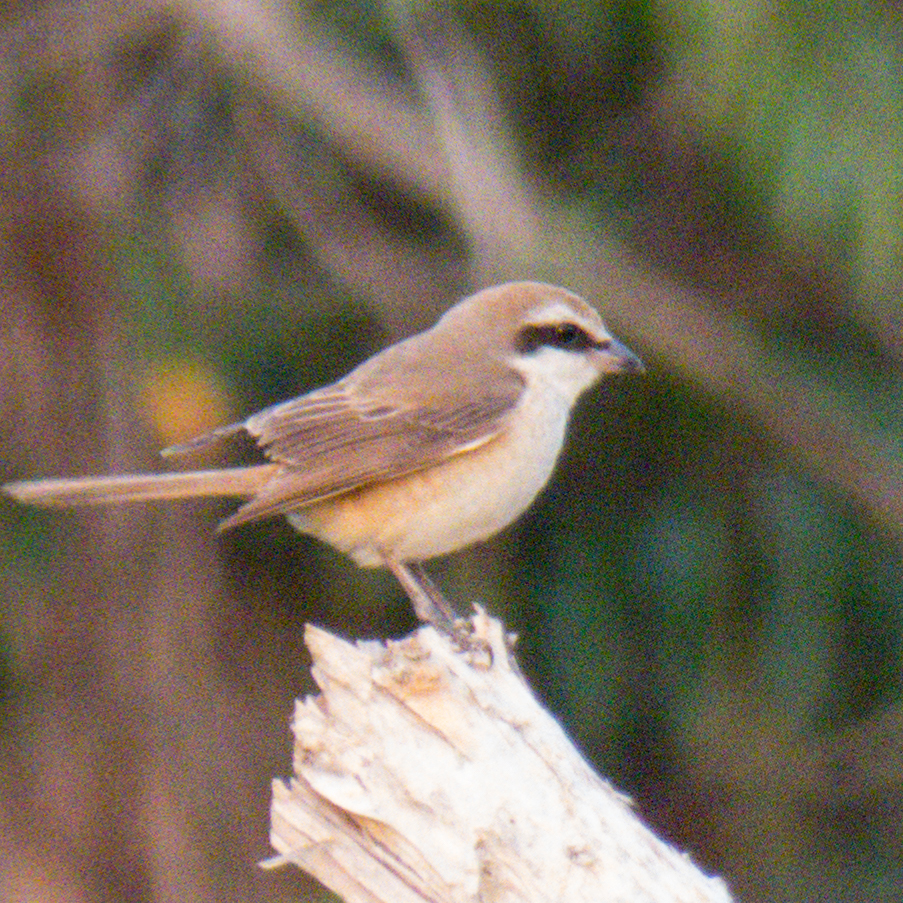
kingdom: Animalia
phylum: Chordata
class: Aves
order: Passeriformes
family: Laniidae
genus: Lanius
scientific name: Lanius cristatus
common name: Brown shrike
